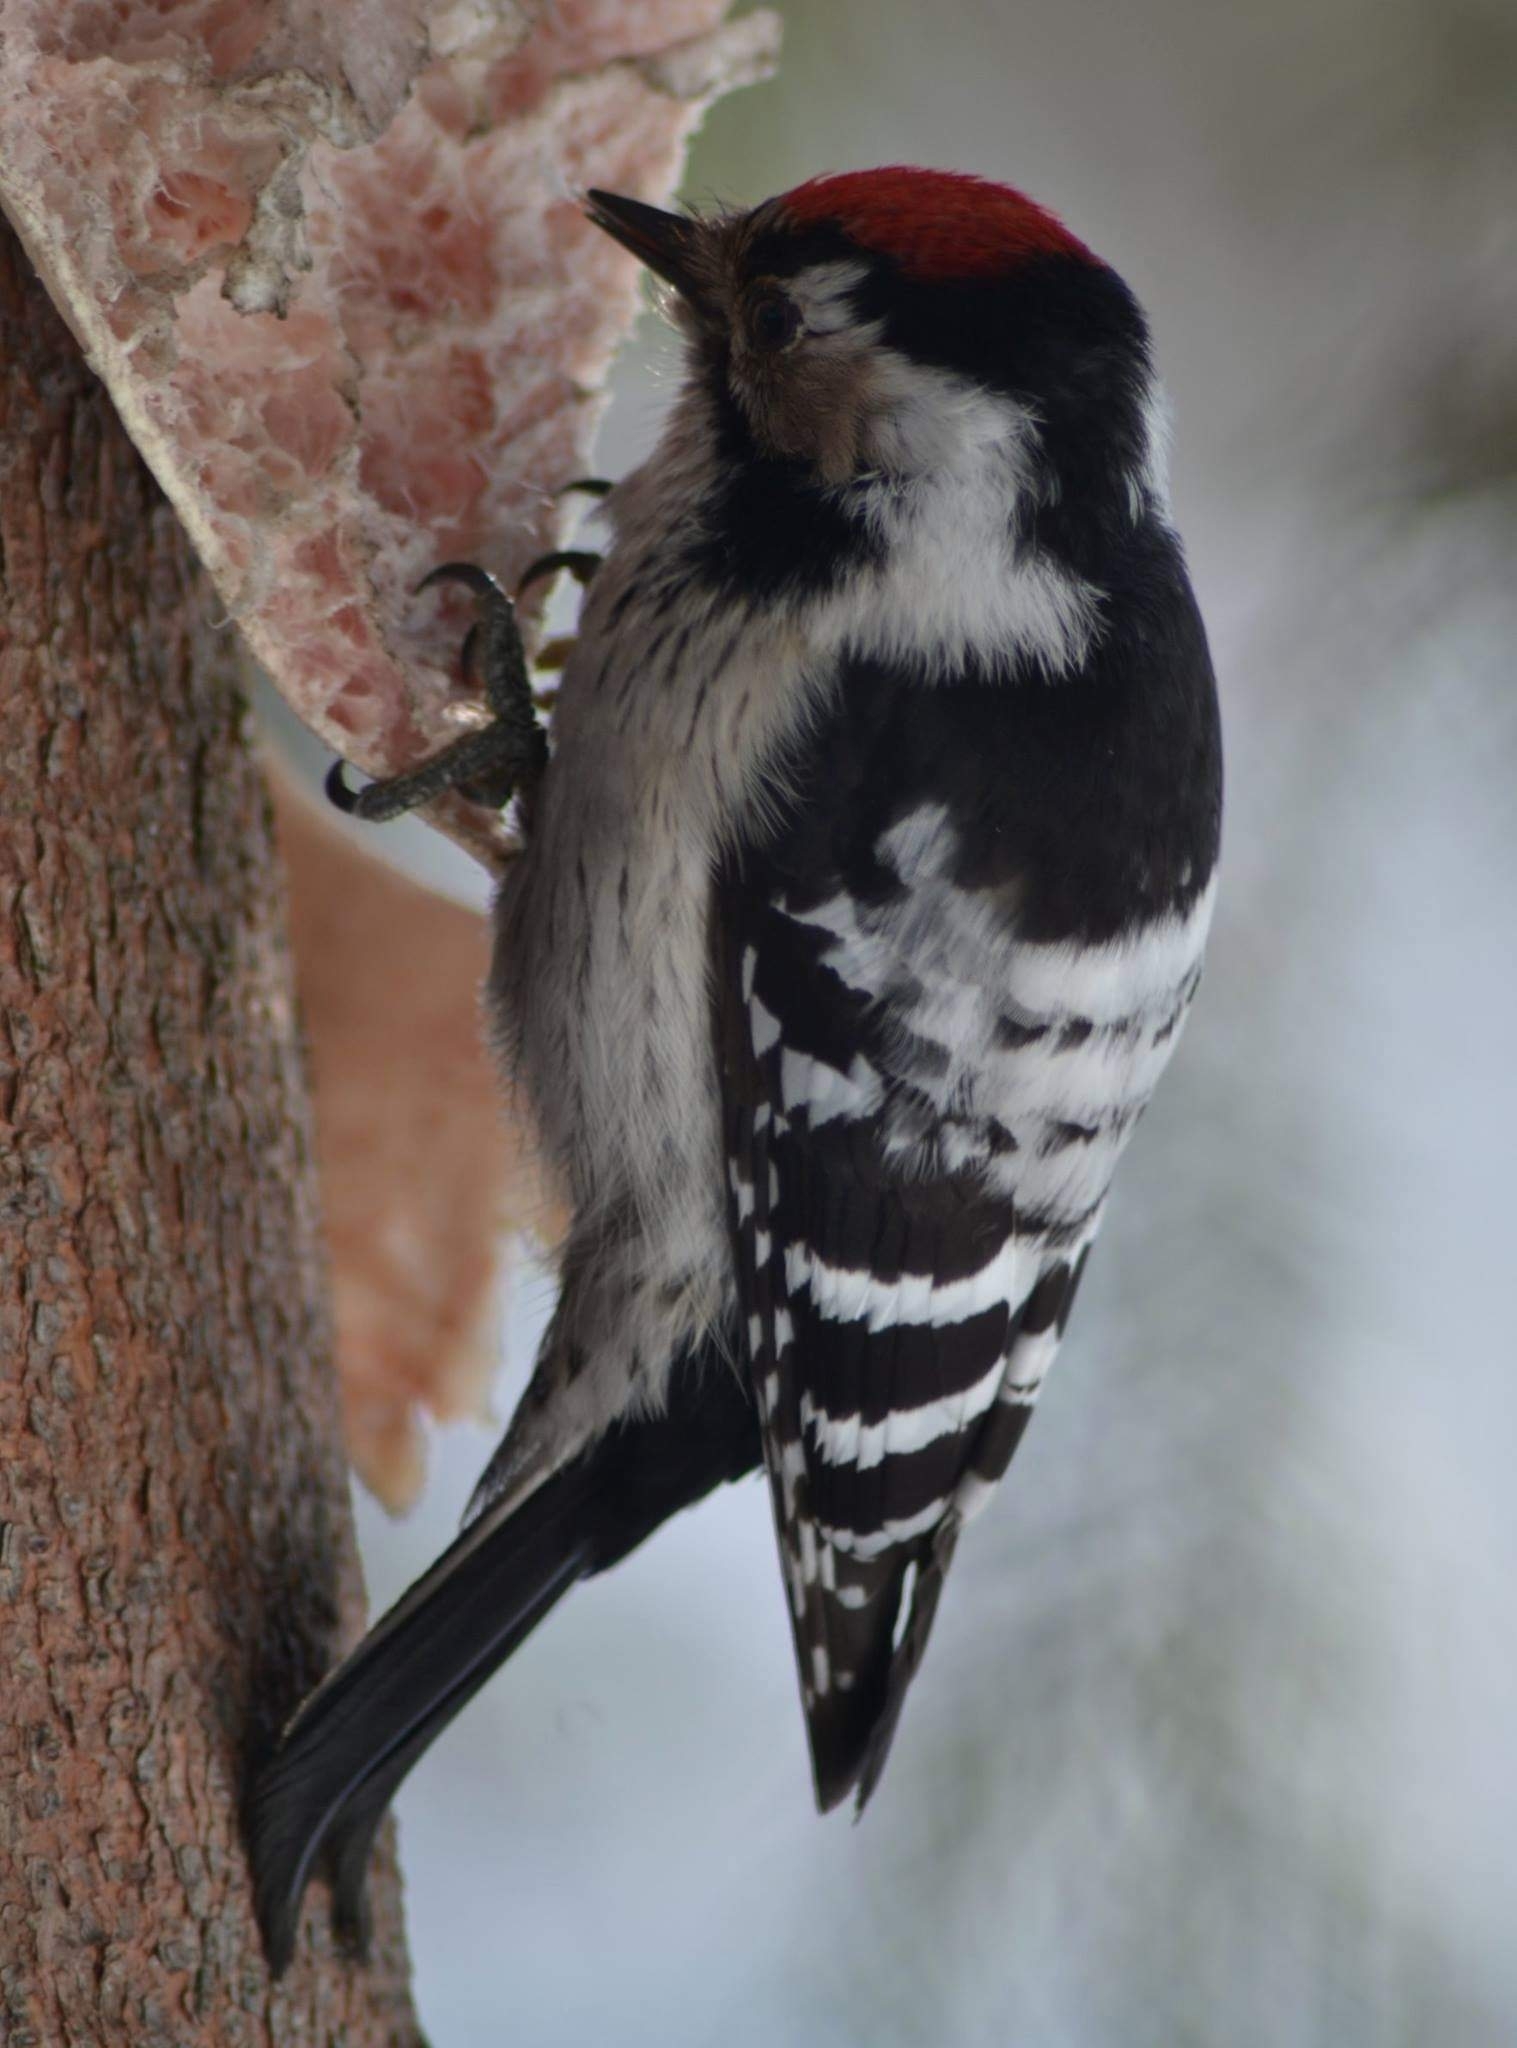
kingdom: Animalia
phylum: Chordata
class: Aves
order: Piciformes
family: Picidae
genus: Dryobates
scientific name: Dryobates minor
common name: Lesser spotted woodpecker
